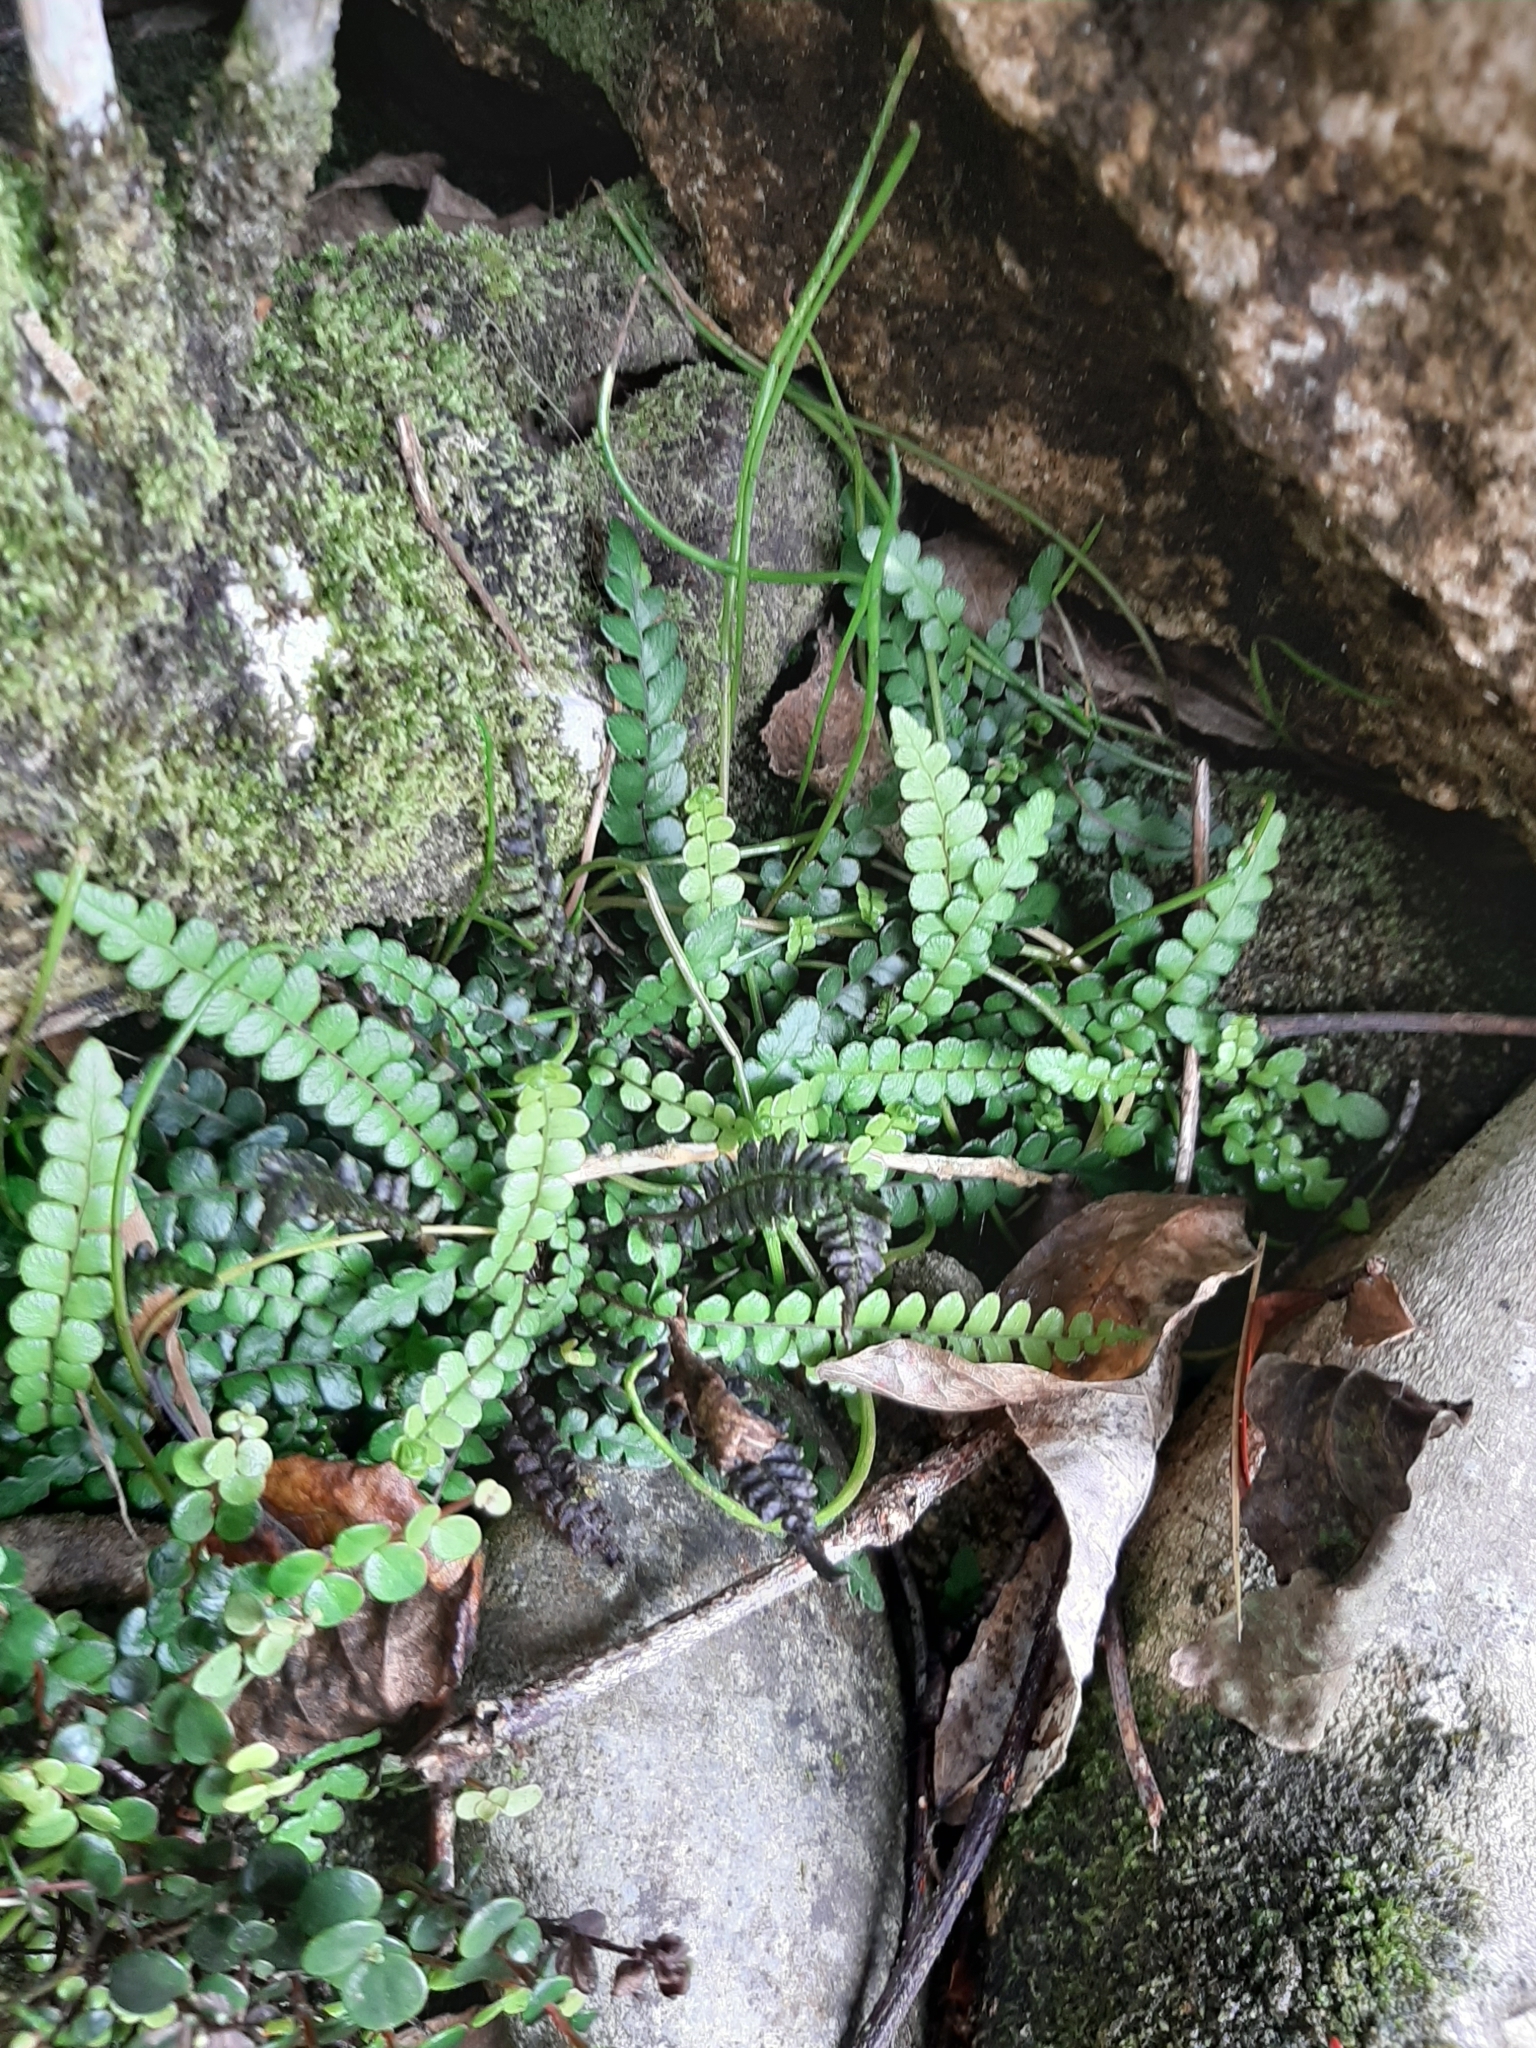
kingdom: Plantae
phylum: Tracheophyta
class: Polypodiopsida
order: Polypodiales
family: Blechnaceae
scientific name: Blechnaceae
